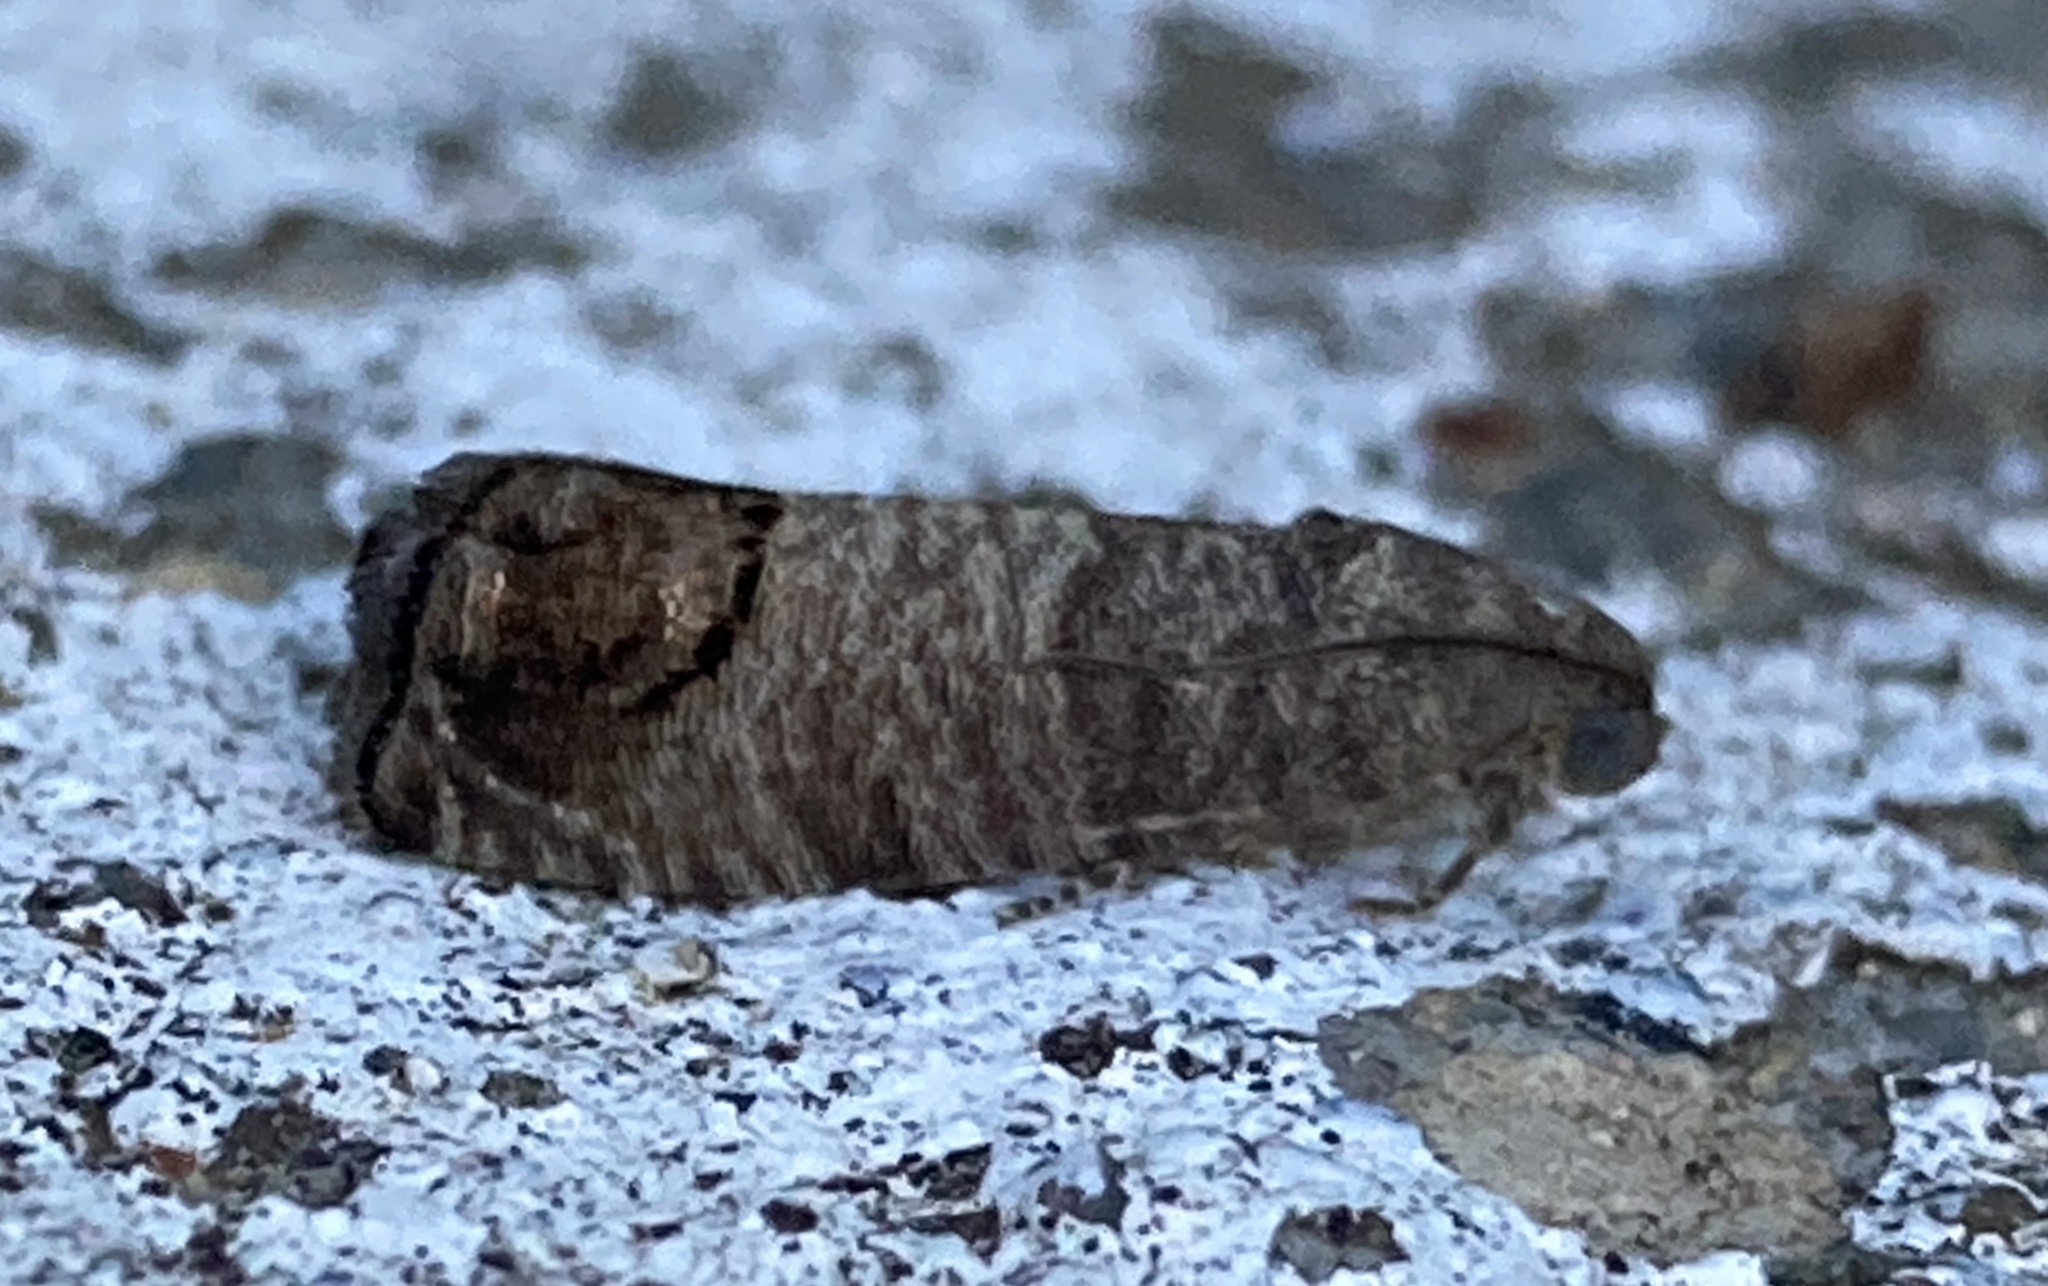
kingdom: Animalia
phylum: Arthropoda
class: Insecta
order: Lepidoptera
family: Tortricidae
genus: Cydia
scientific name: Cydia pomonella
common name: Codling moth
